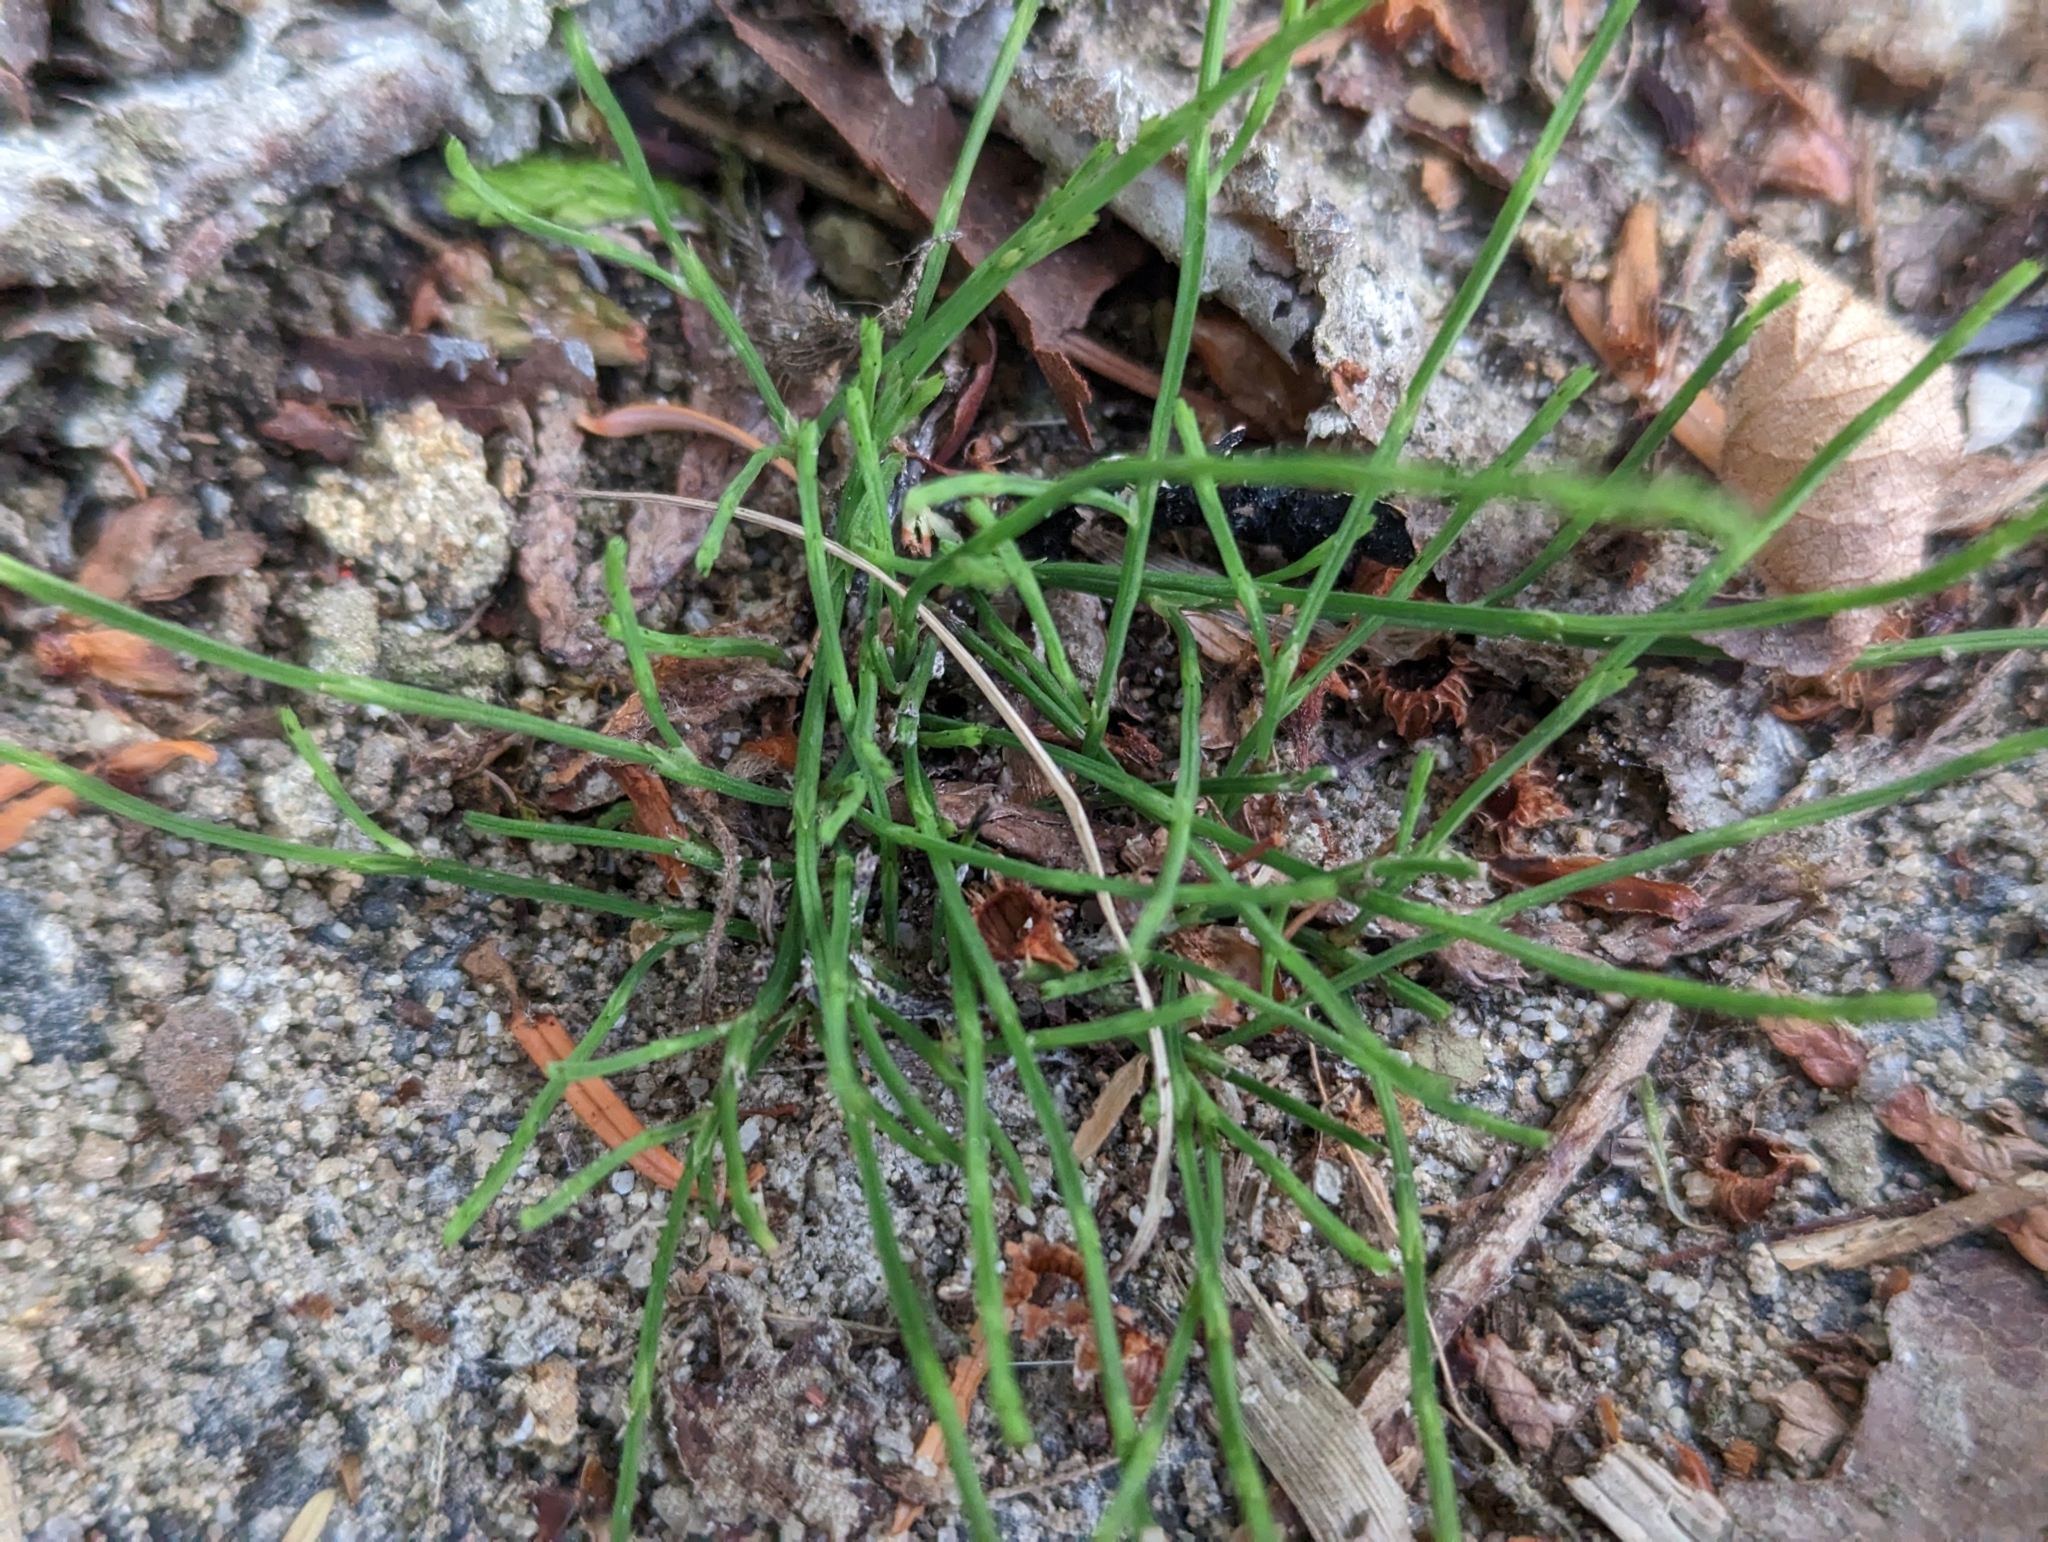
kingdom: Plantae
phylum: Tracheophyta
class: Polypodiopsida
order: Equisetales
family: Equisetaceae
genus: Equisetum
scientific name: Equisetum arvense
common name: Field horsetail
